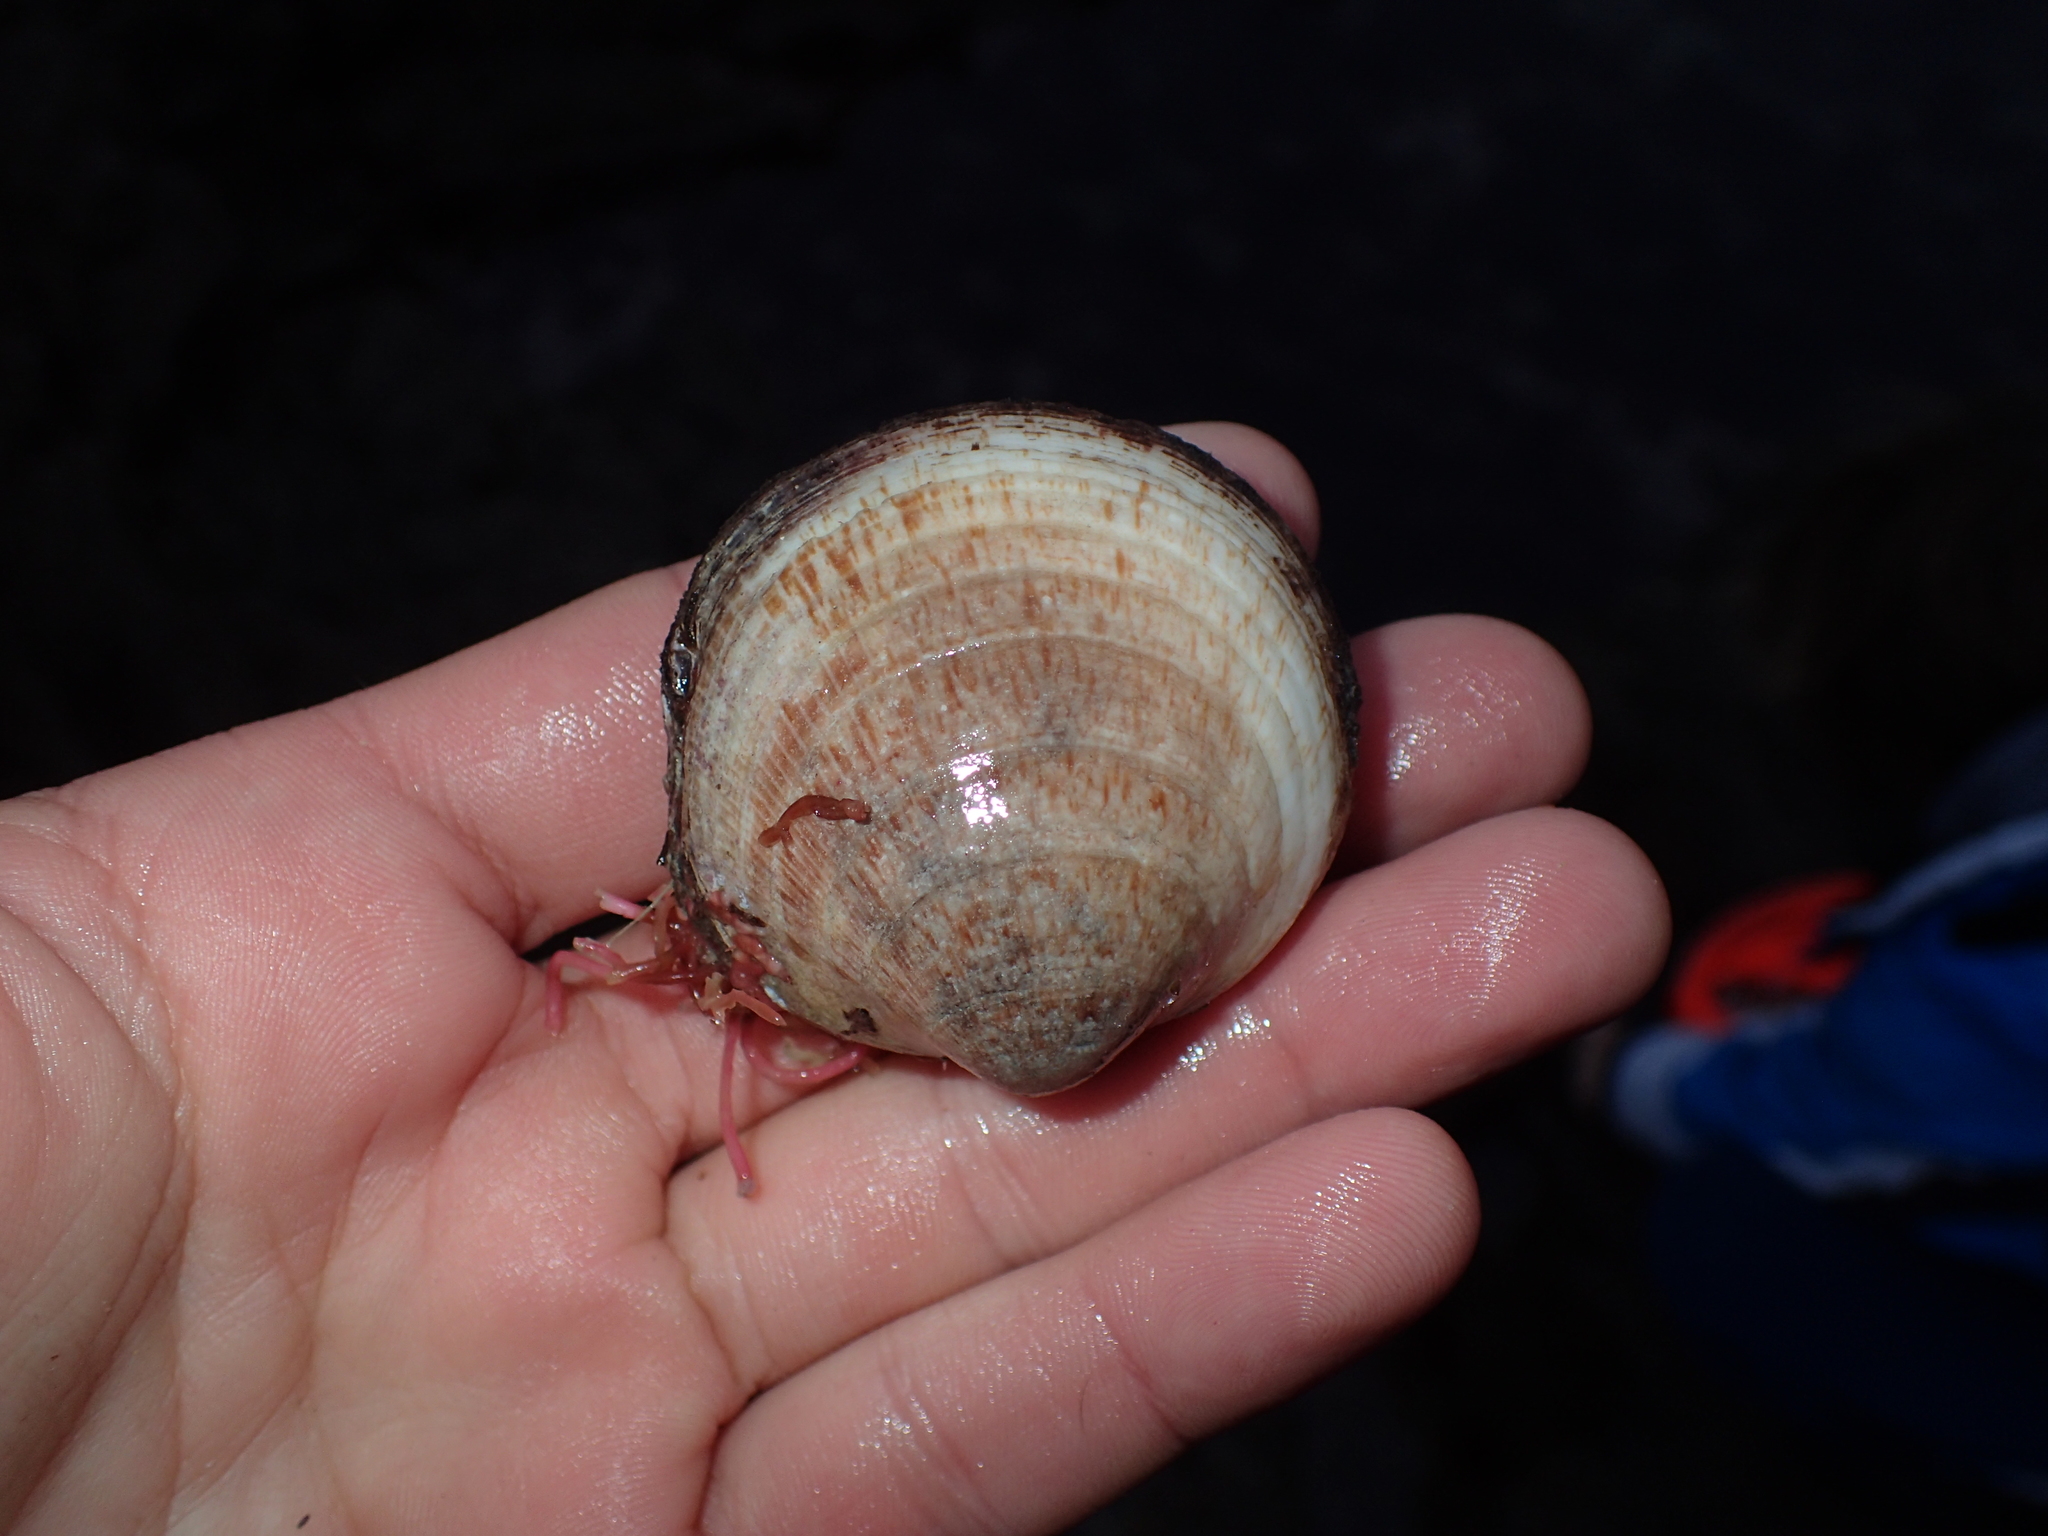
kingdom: Animalia
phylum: Mollusca
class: Bivalvia
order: Arcida
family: Glycymerididae
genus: Glycymeris
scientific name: Glycymeris glycymeris
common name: Dog-cockle
